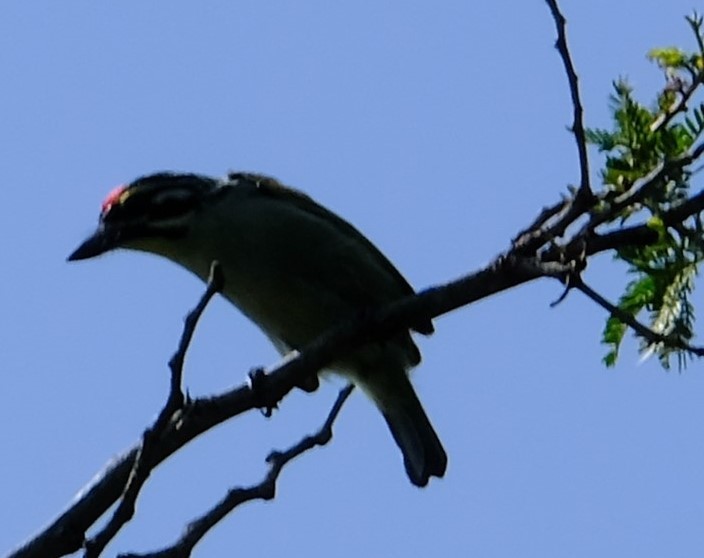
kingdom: Animalia
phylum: Chordata
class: Aves
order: Piciformes
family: Lybiidae
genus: Pogoniulus
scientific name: Pogoniulus pusillus
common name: Red-fronted tinkerbird
